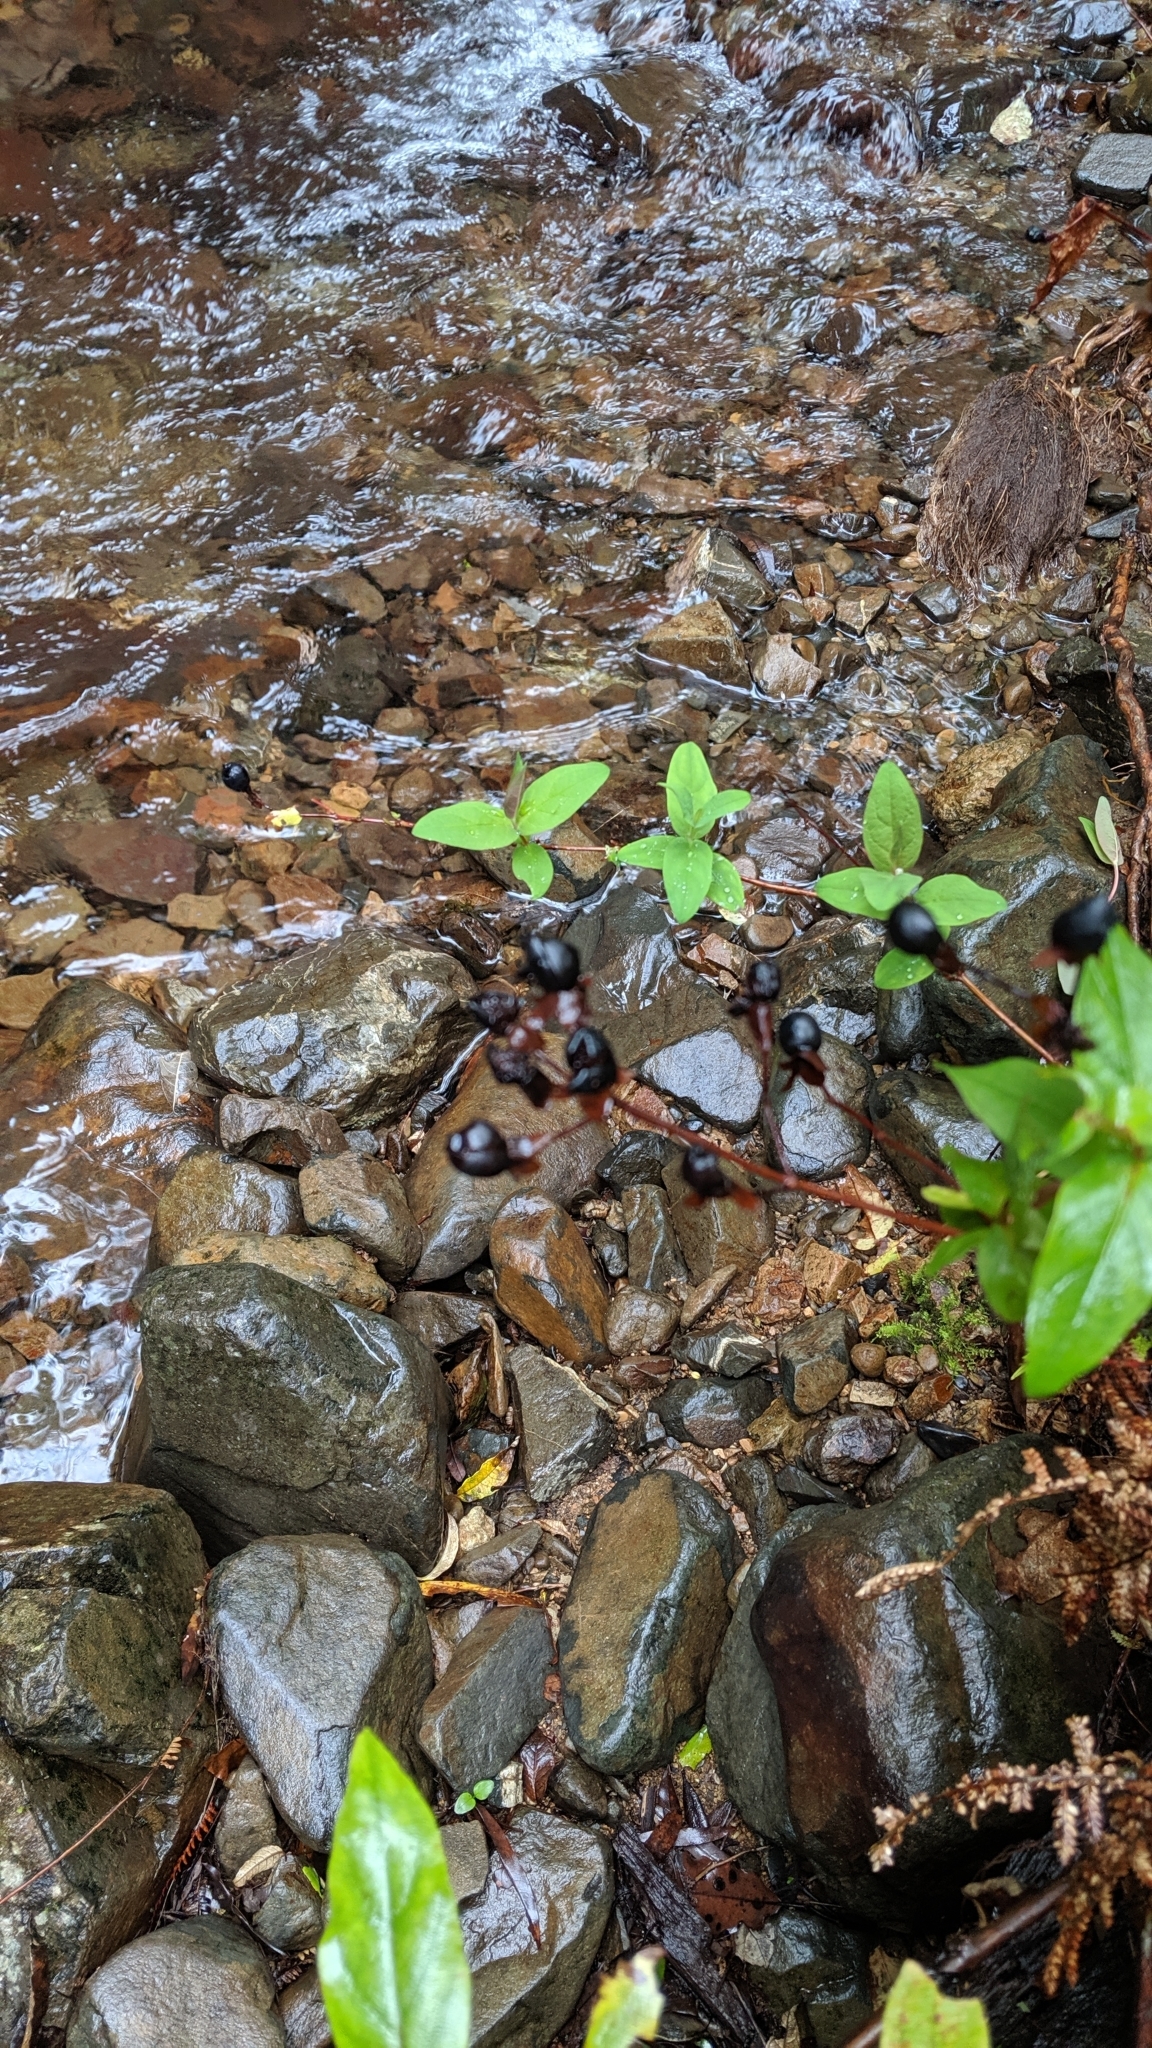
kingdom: Plantae
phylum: Tracheophyta
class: Magnoliopsida
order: Malpighiales
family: Hypericaceae
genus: Hypericum
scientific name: Hypericum androsaemum
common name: Sweet-amber
